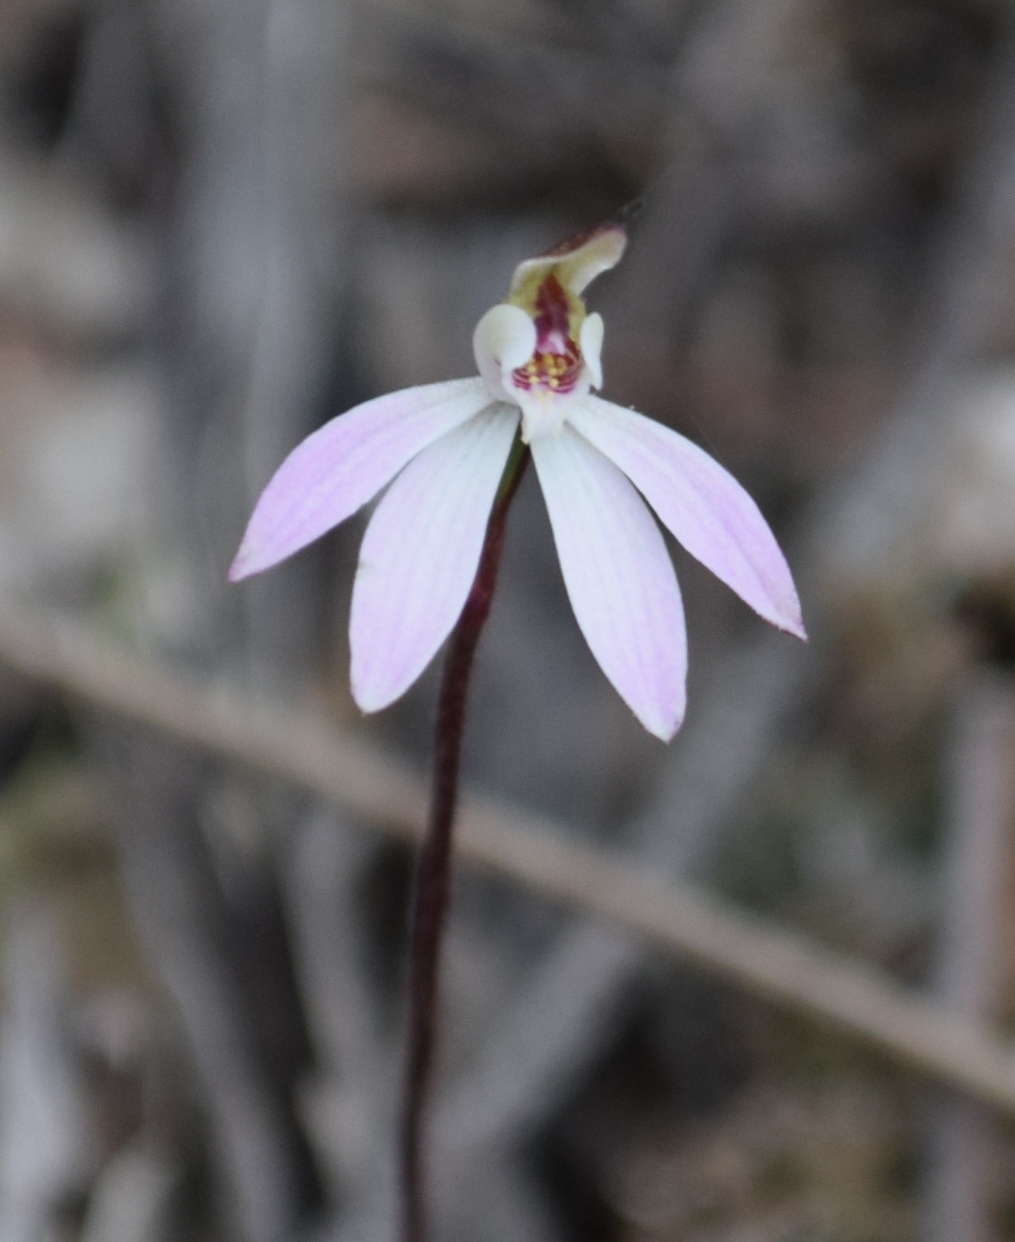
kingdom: Plantae
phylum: Tracheophyta
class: Liliopsida
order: Asparagales
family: Orchidaceae
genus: Caladenia
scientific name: Caladenia carnea
